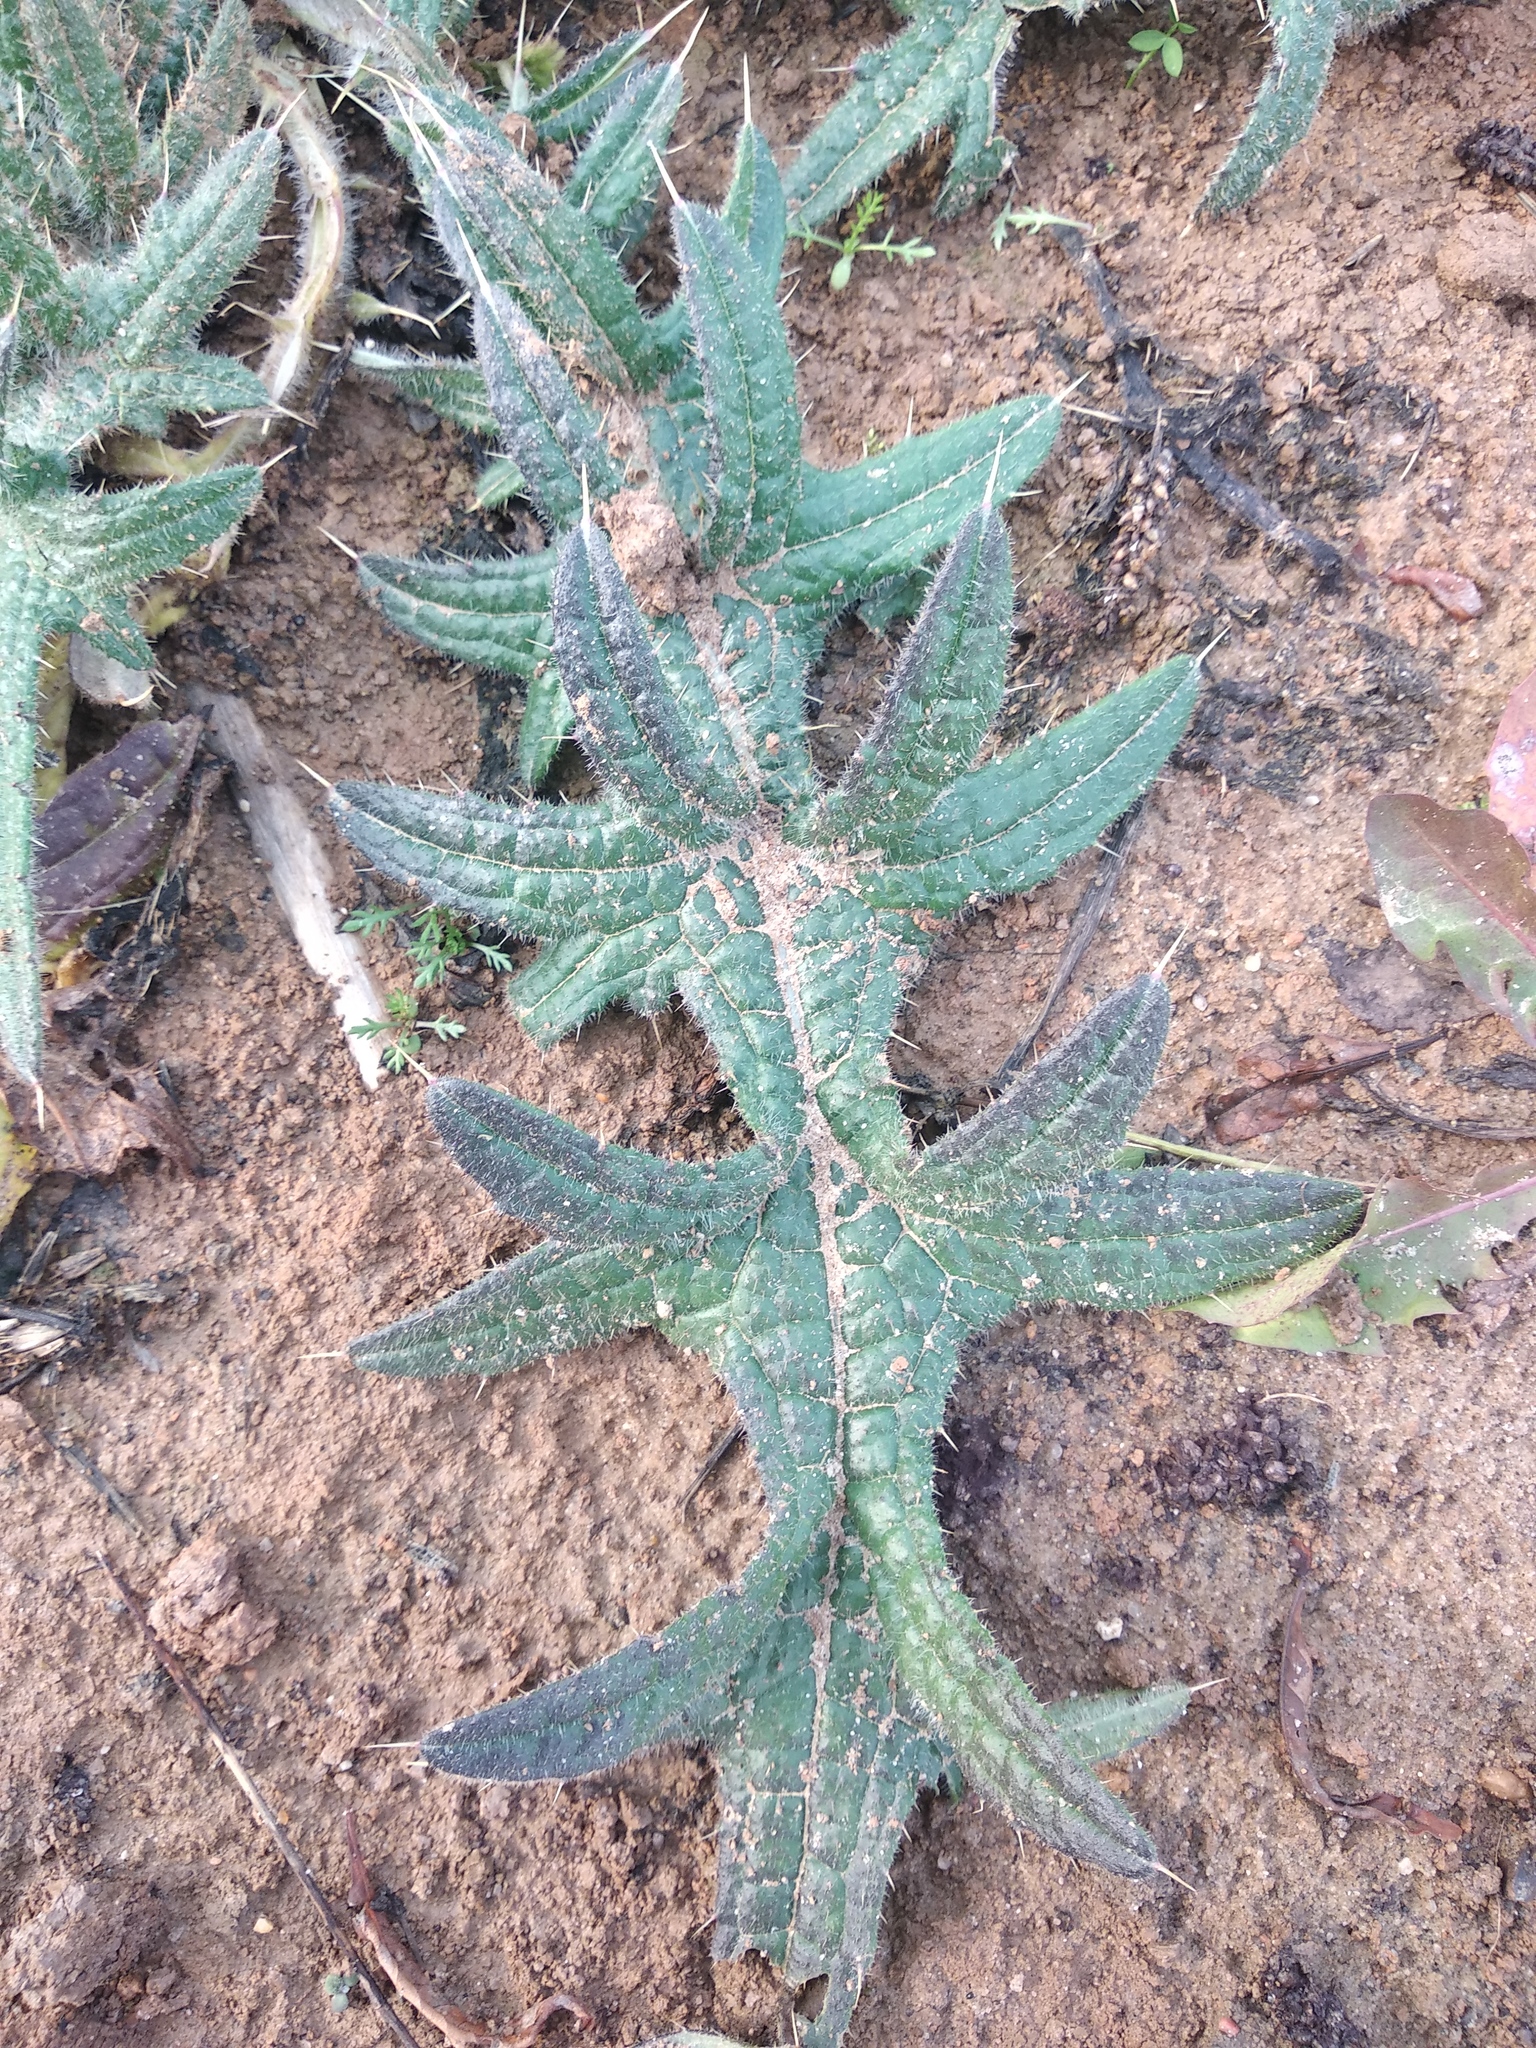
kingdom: Plantae
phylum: Tracheophyta
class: Magnoliopsida
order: Asterales
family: Asteraceae
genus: Cirsium
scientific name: Cirsium vulgare
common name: Bull thistle
